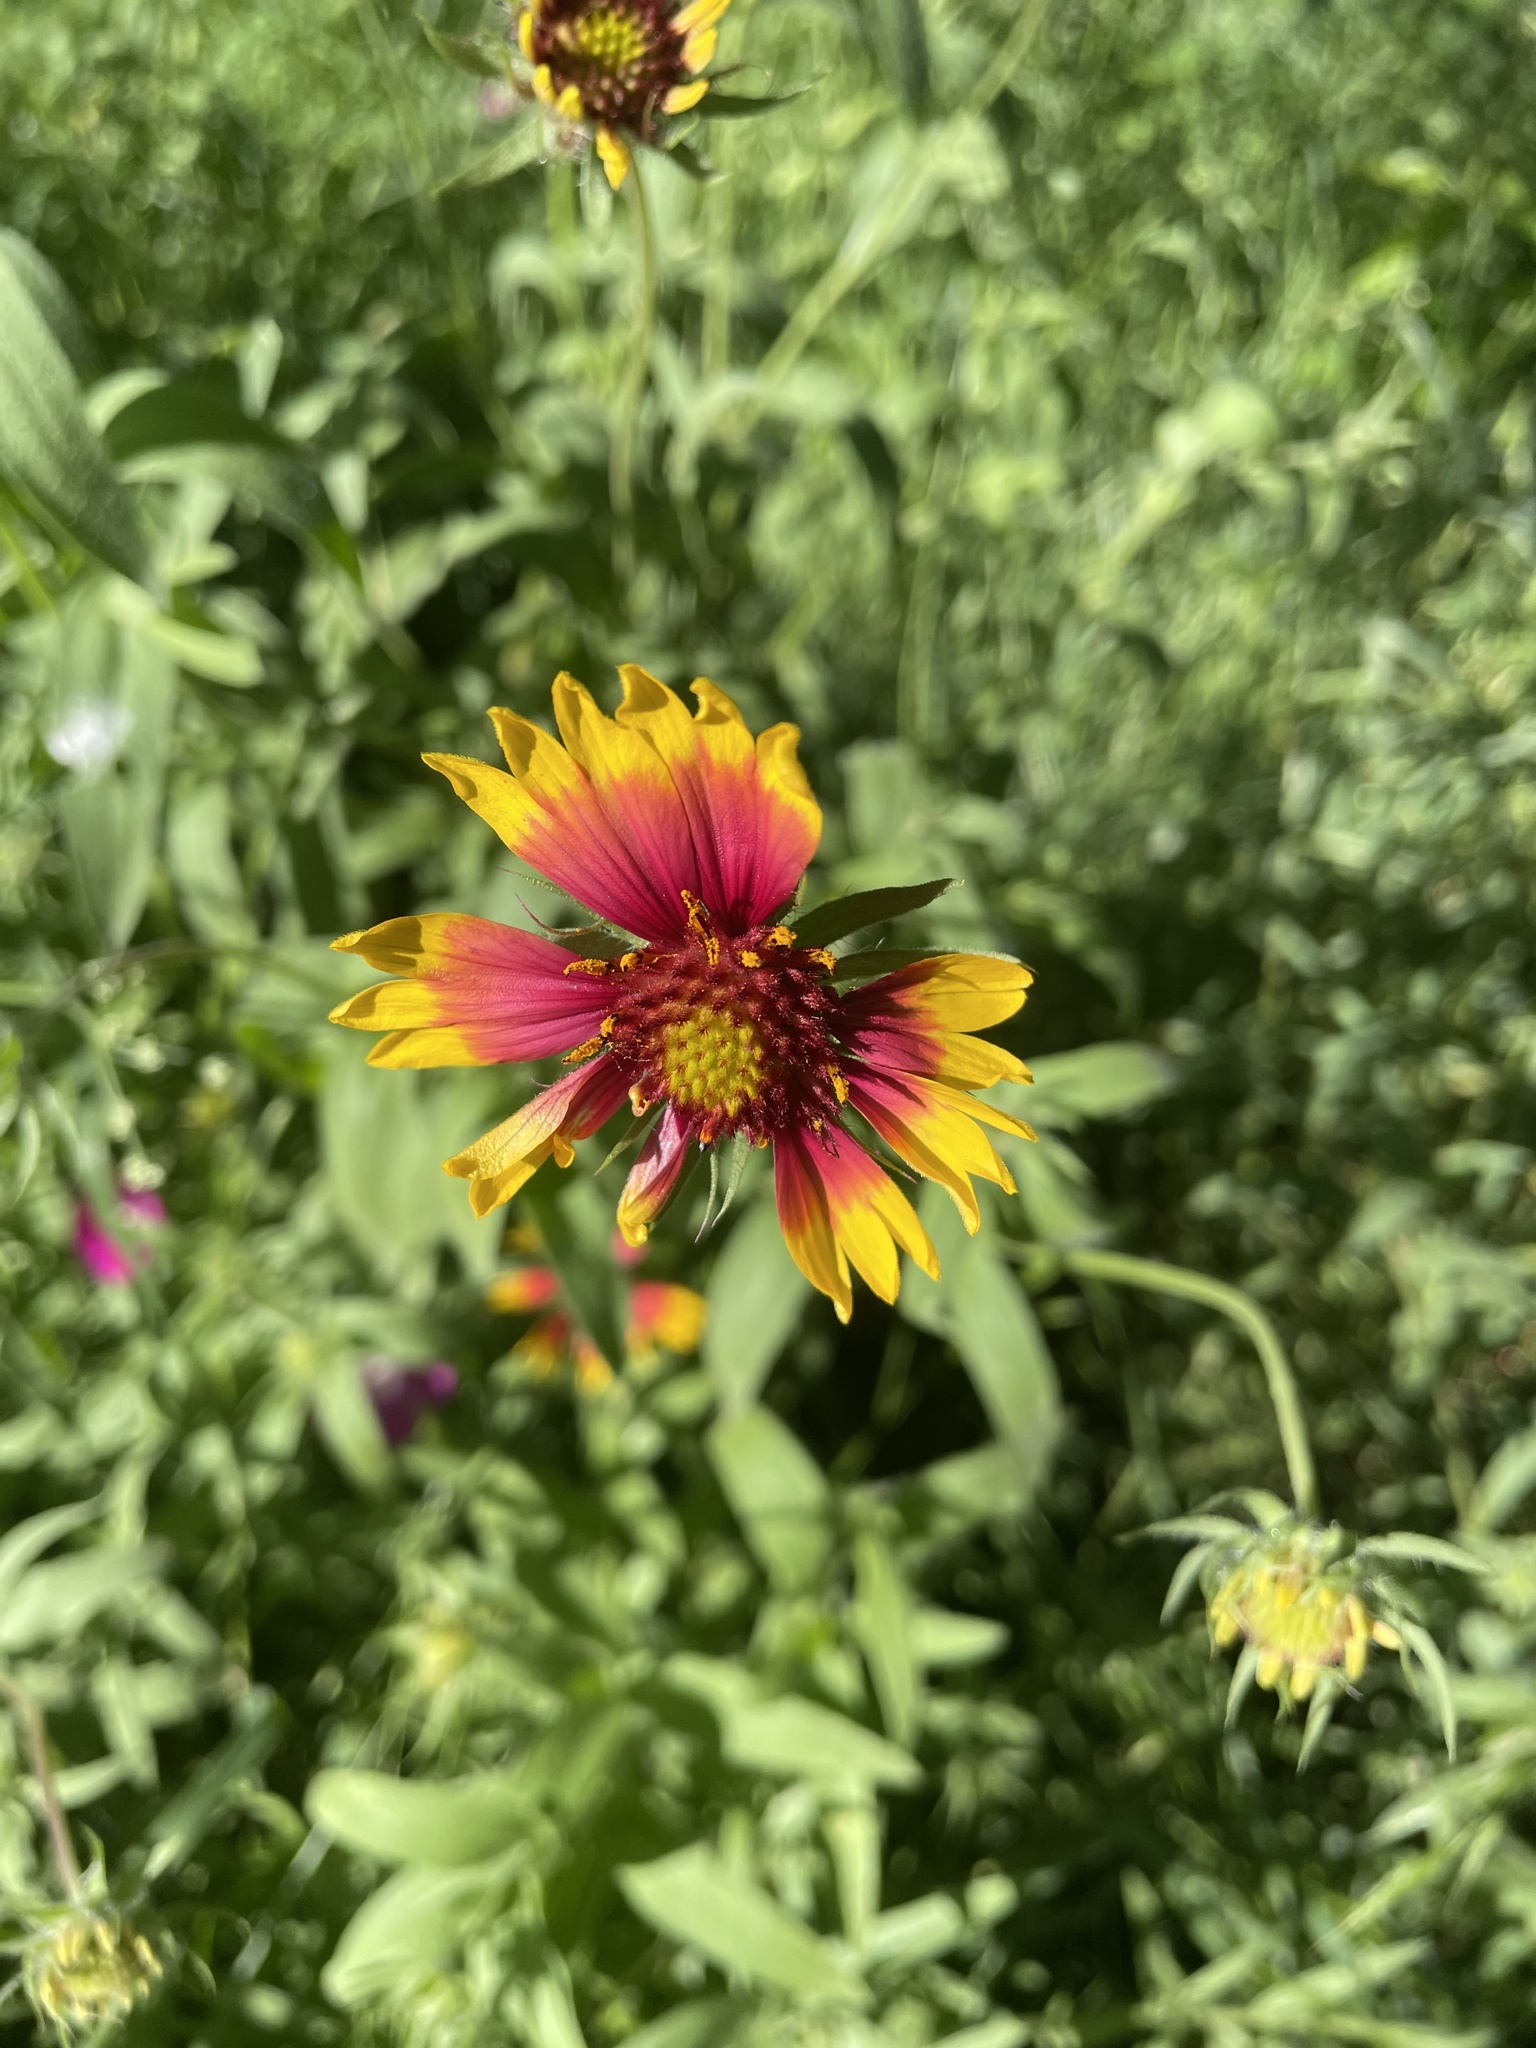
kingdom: Plantae
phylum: Tracheophyta
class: Magnoliopsida
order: Asterales
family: Asteraceae
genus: Gaillardia
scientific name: Gaillardia pulchella
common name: Firewheel
